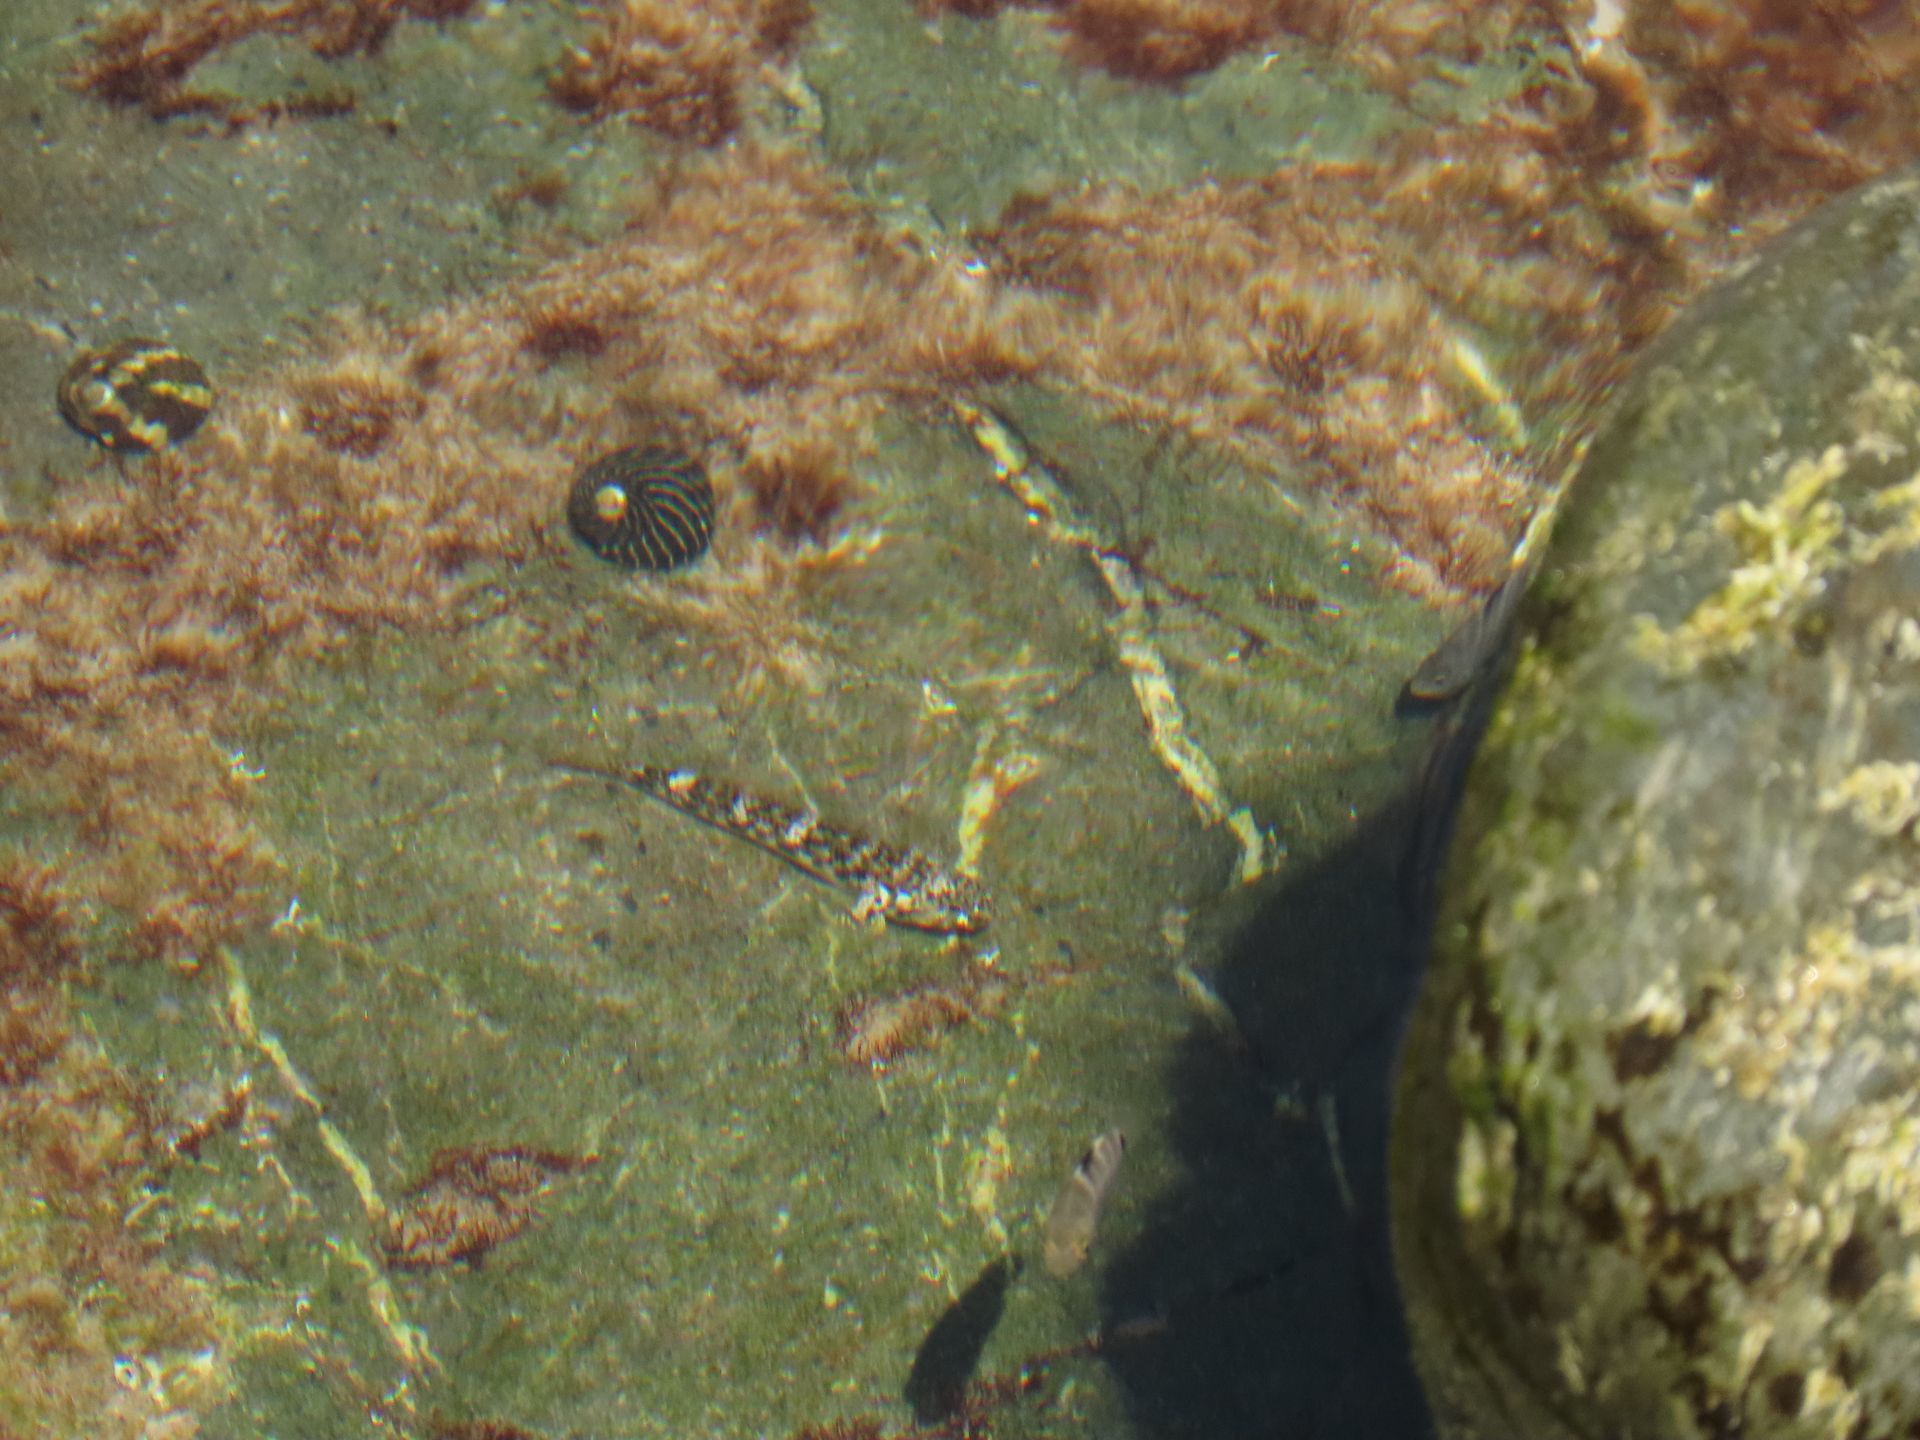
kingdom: Animalia
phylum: Chordata
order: Perciformes
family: Gobiidae
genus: Bathygobius
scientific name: Bathygobius cocosensis
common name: Cocos frillgoby
